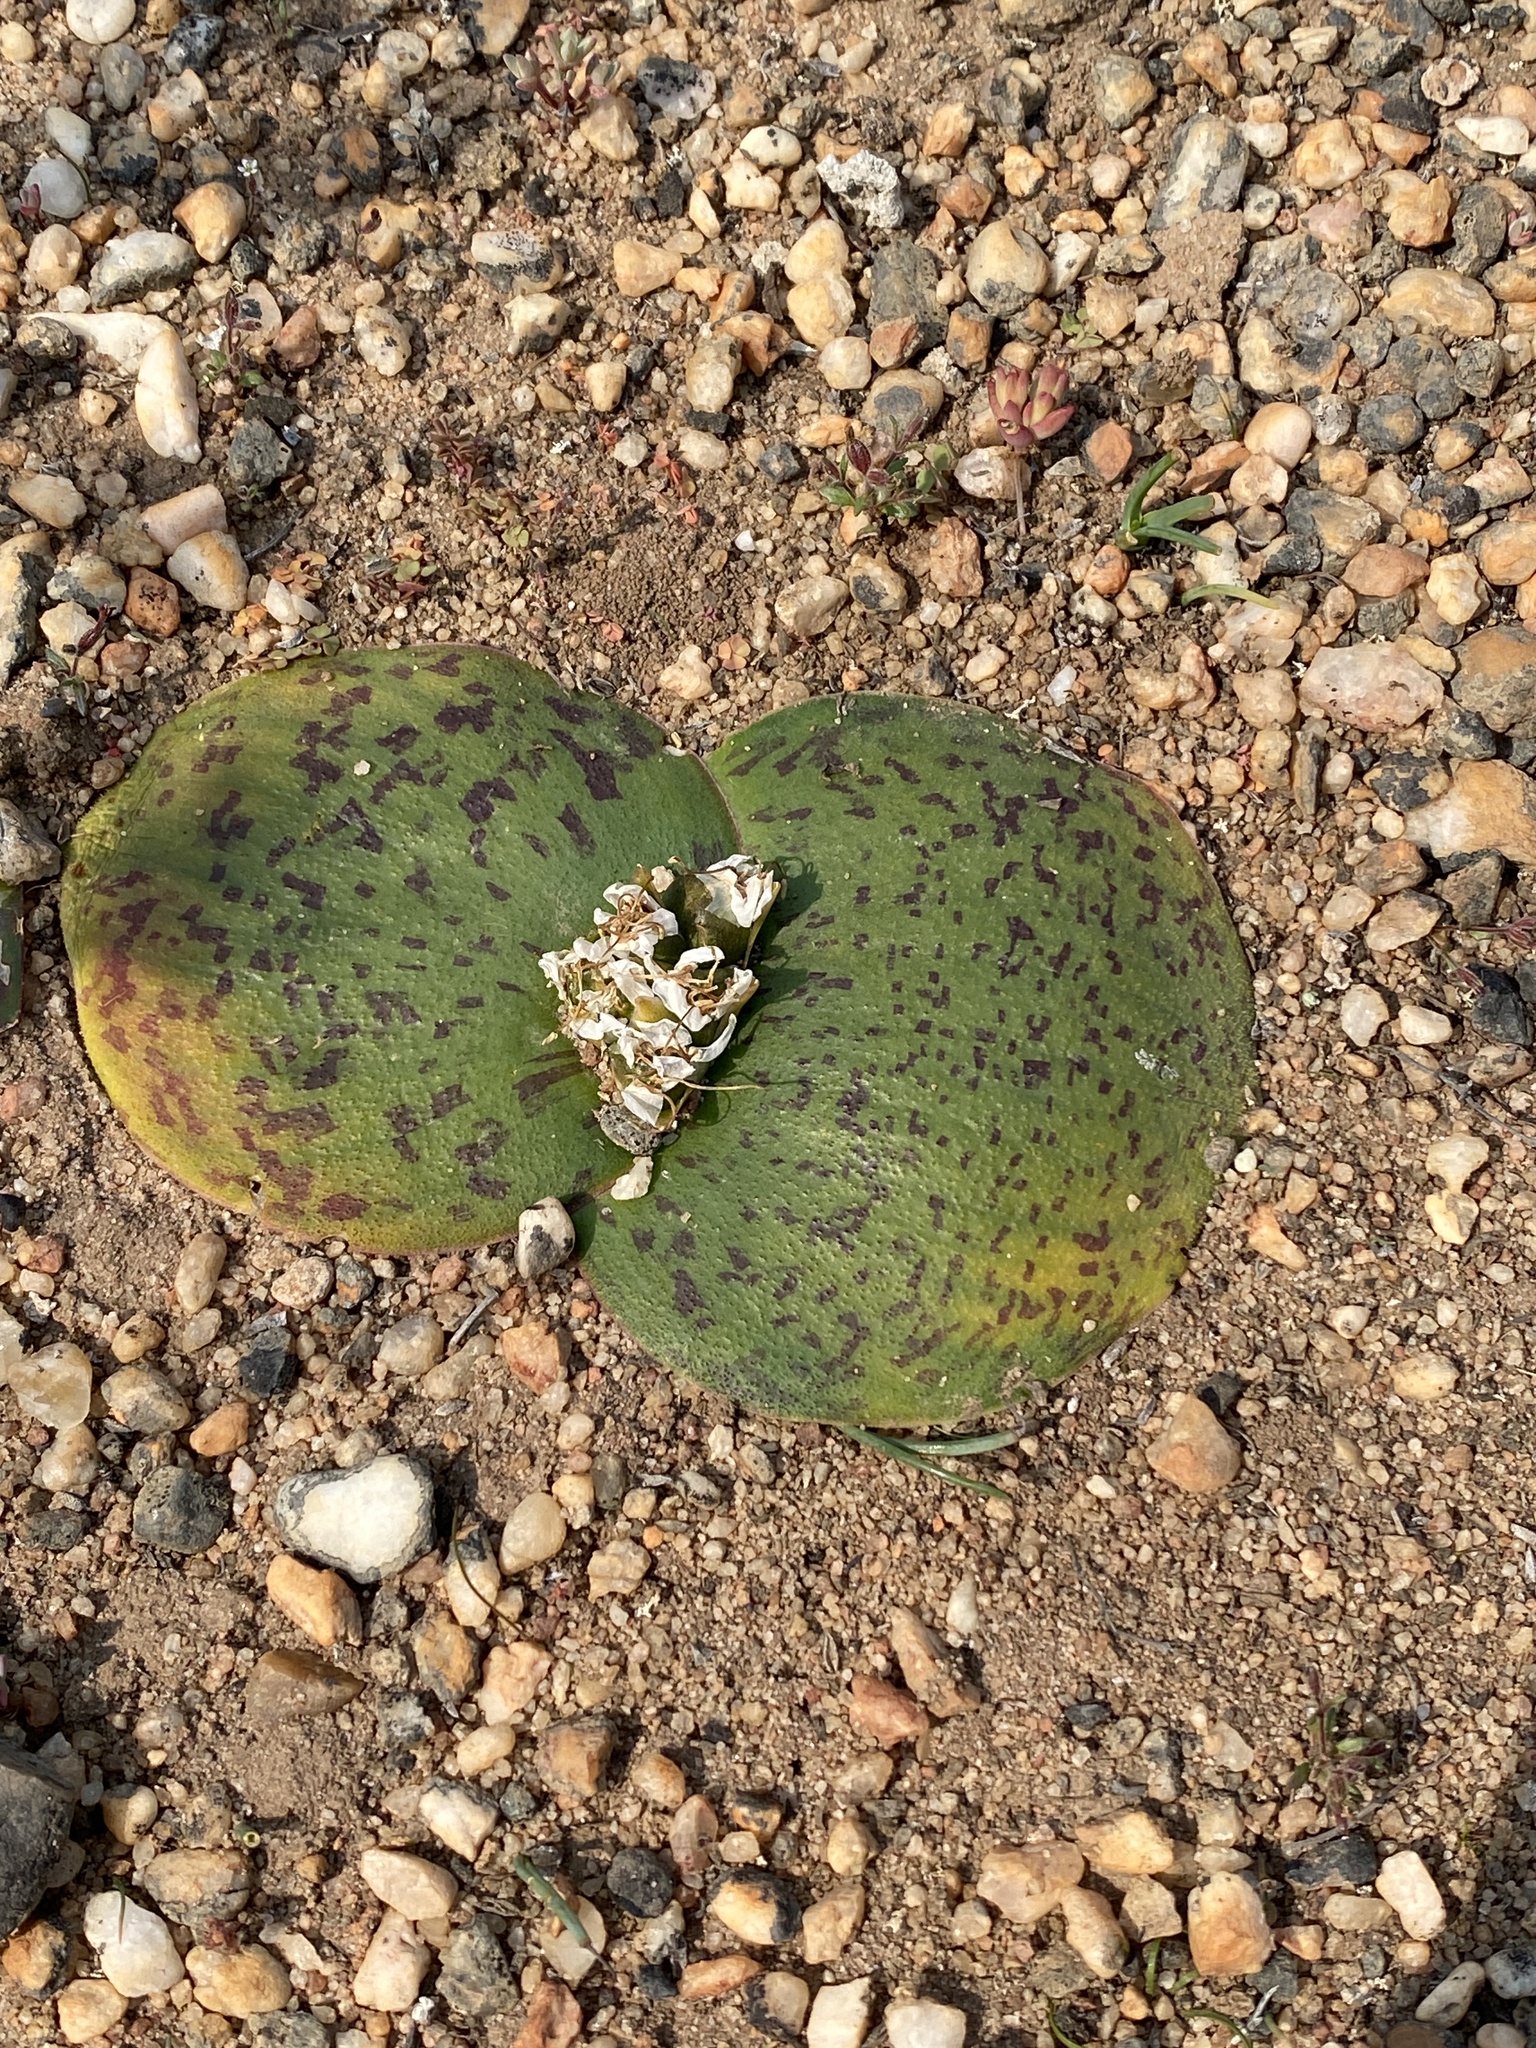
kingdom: Plantae
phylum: Tracheophyta
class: Liliopsida
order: Asparagales
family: Asparagaceae
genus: Massonia
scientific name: Massonia depressa
